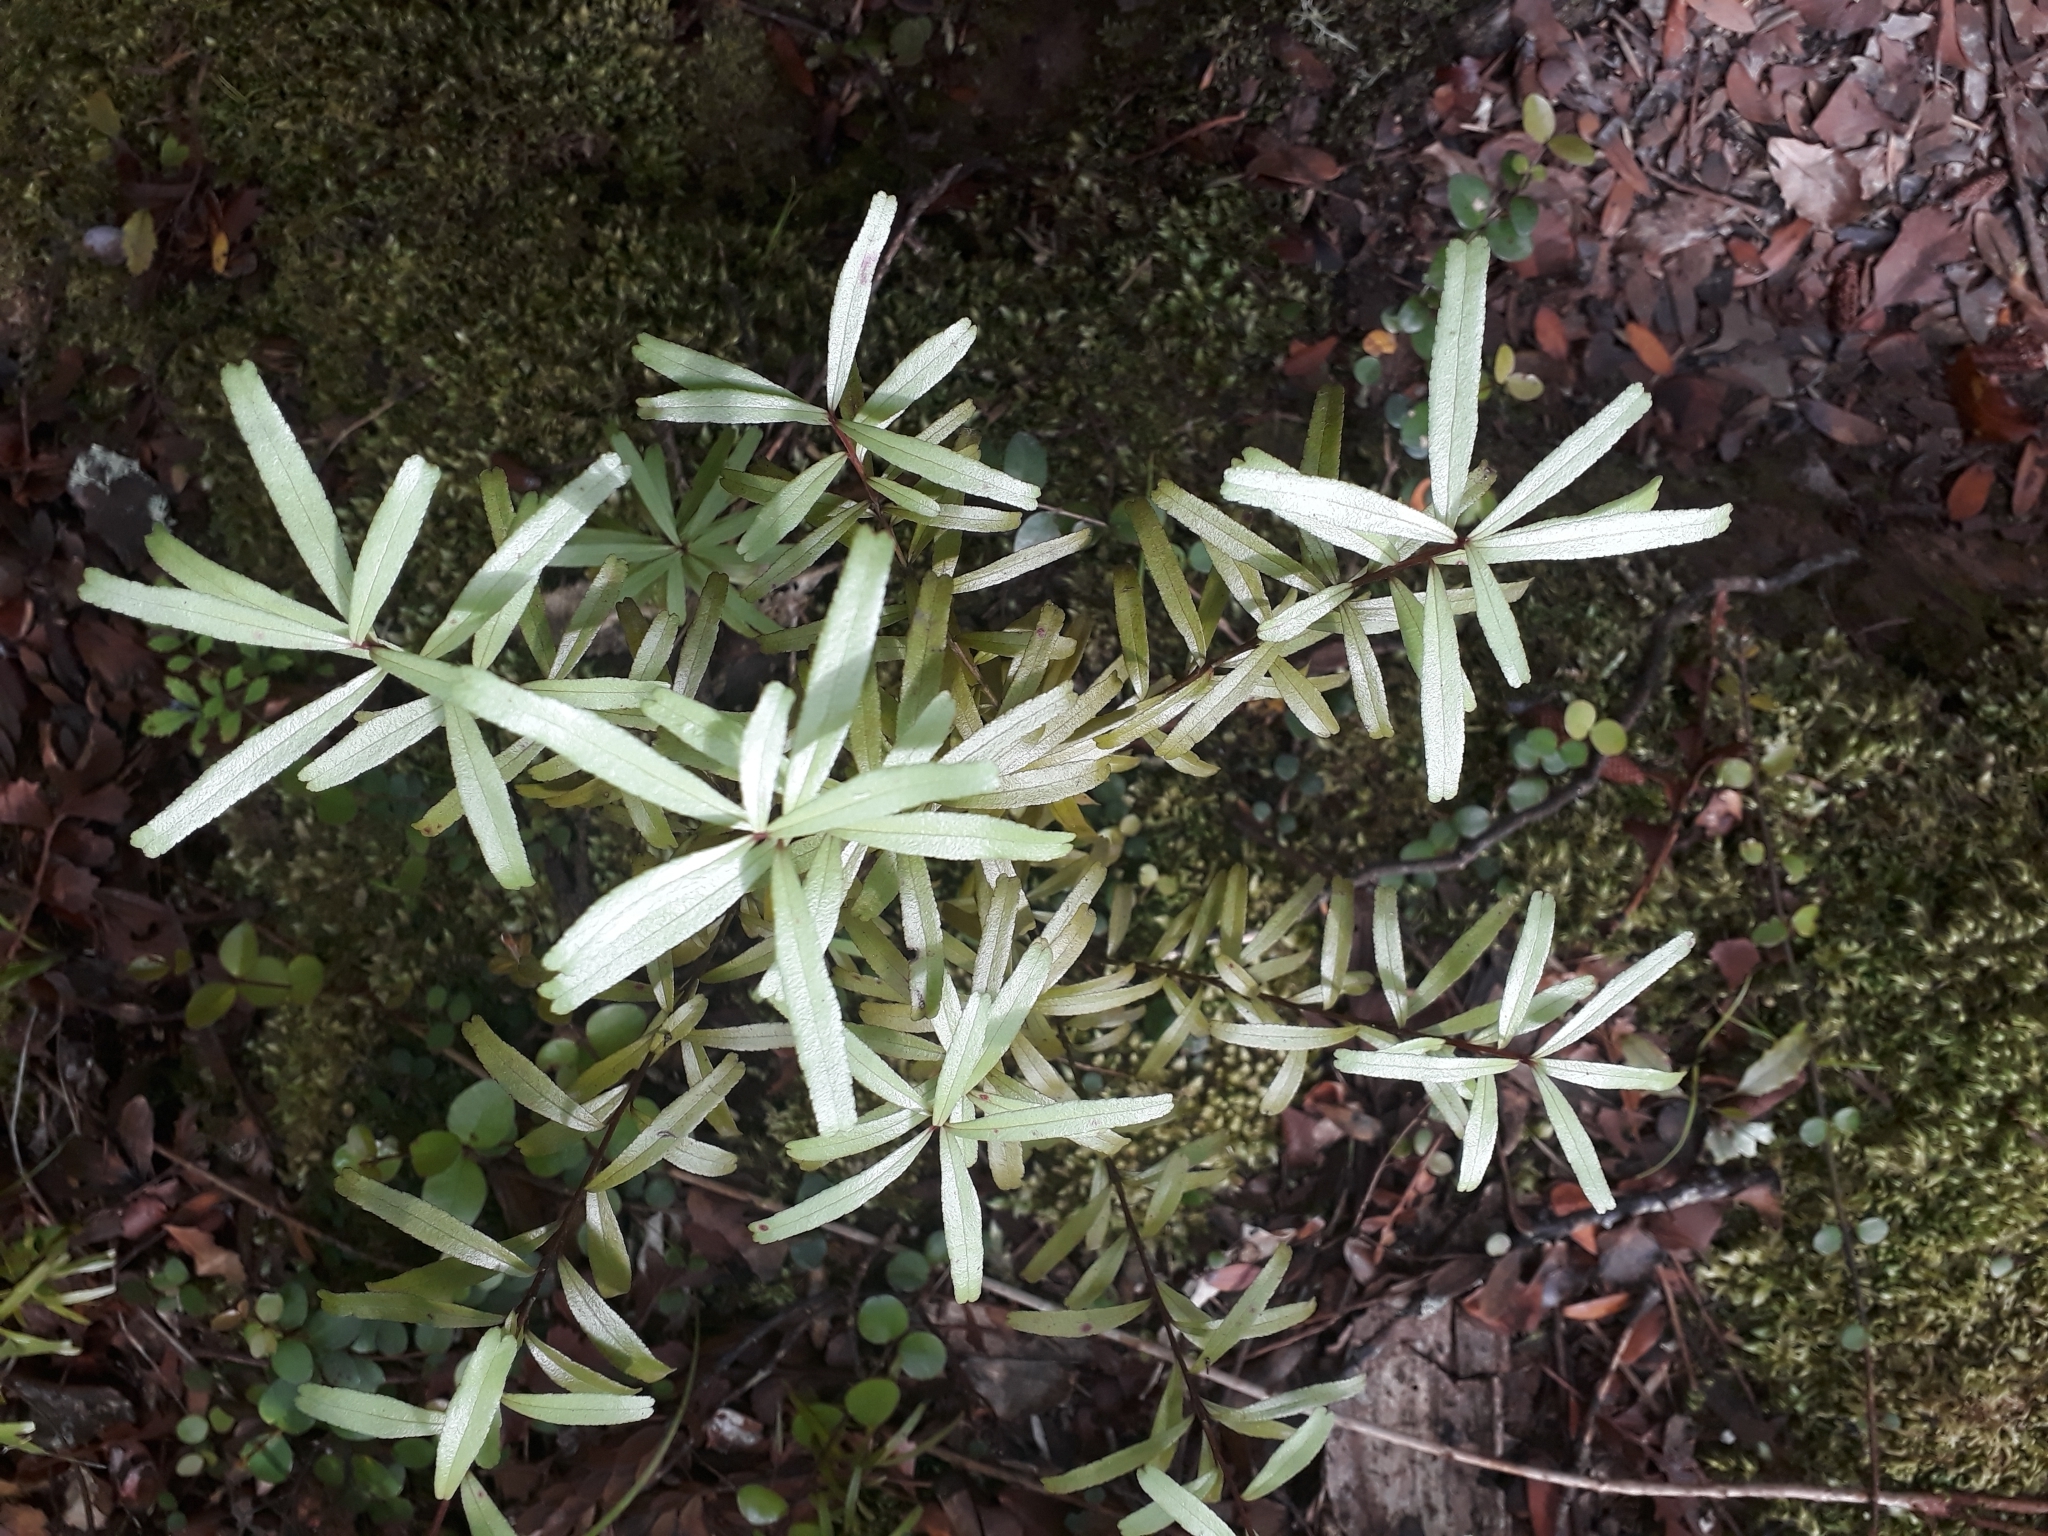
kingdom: Plantae
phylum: Tracheophyta
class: Magnoliopsida
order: Sapindales
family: Rutaceae
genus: Leionema
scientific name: Leionema nudum
